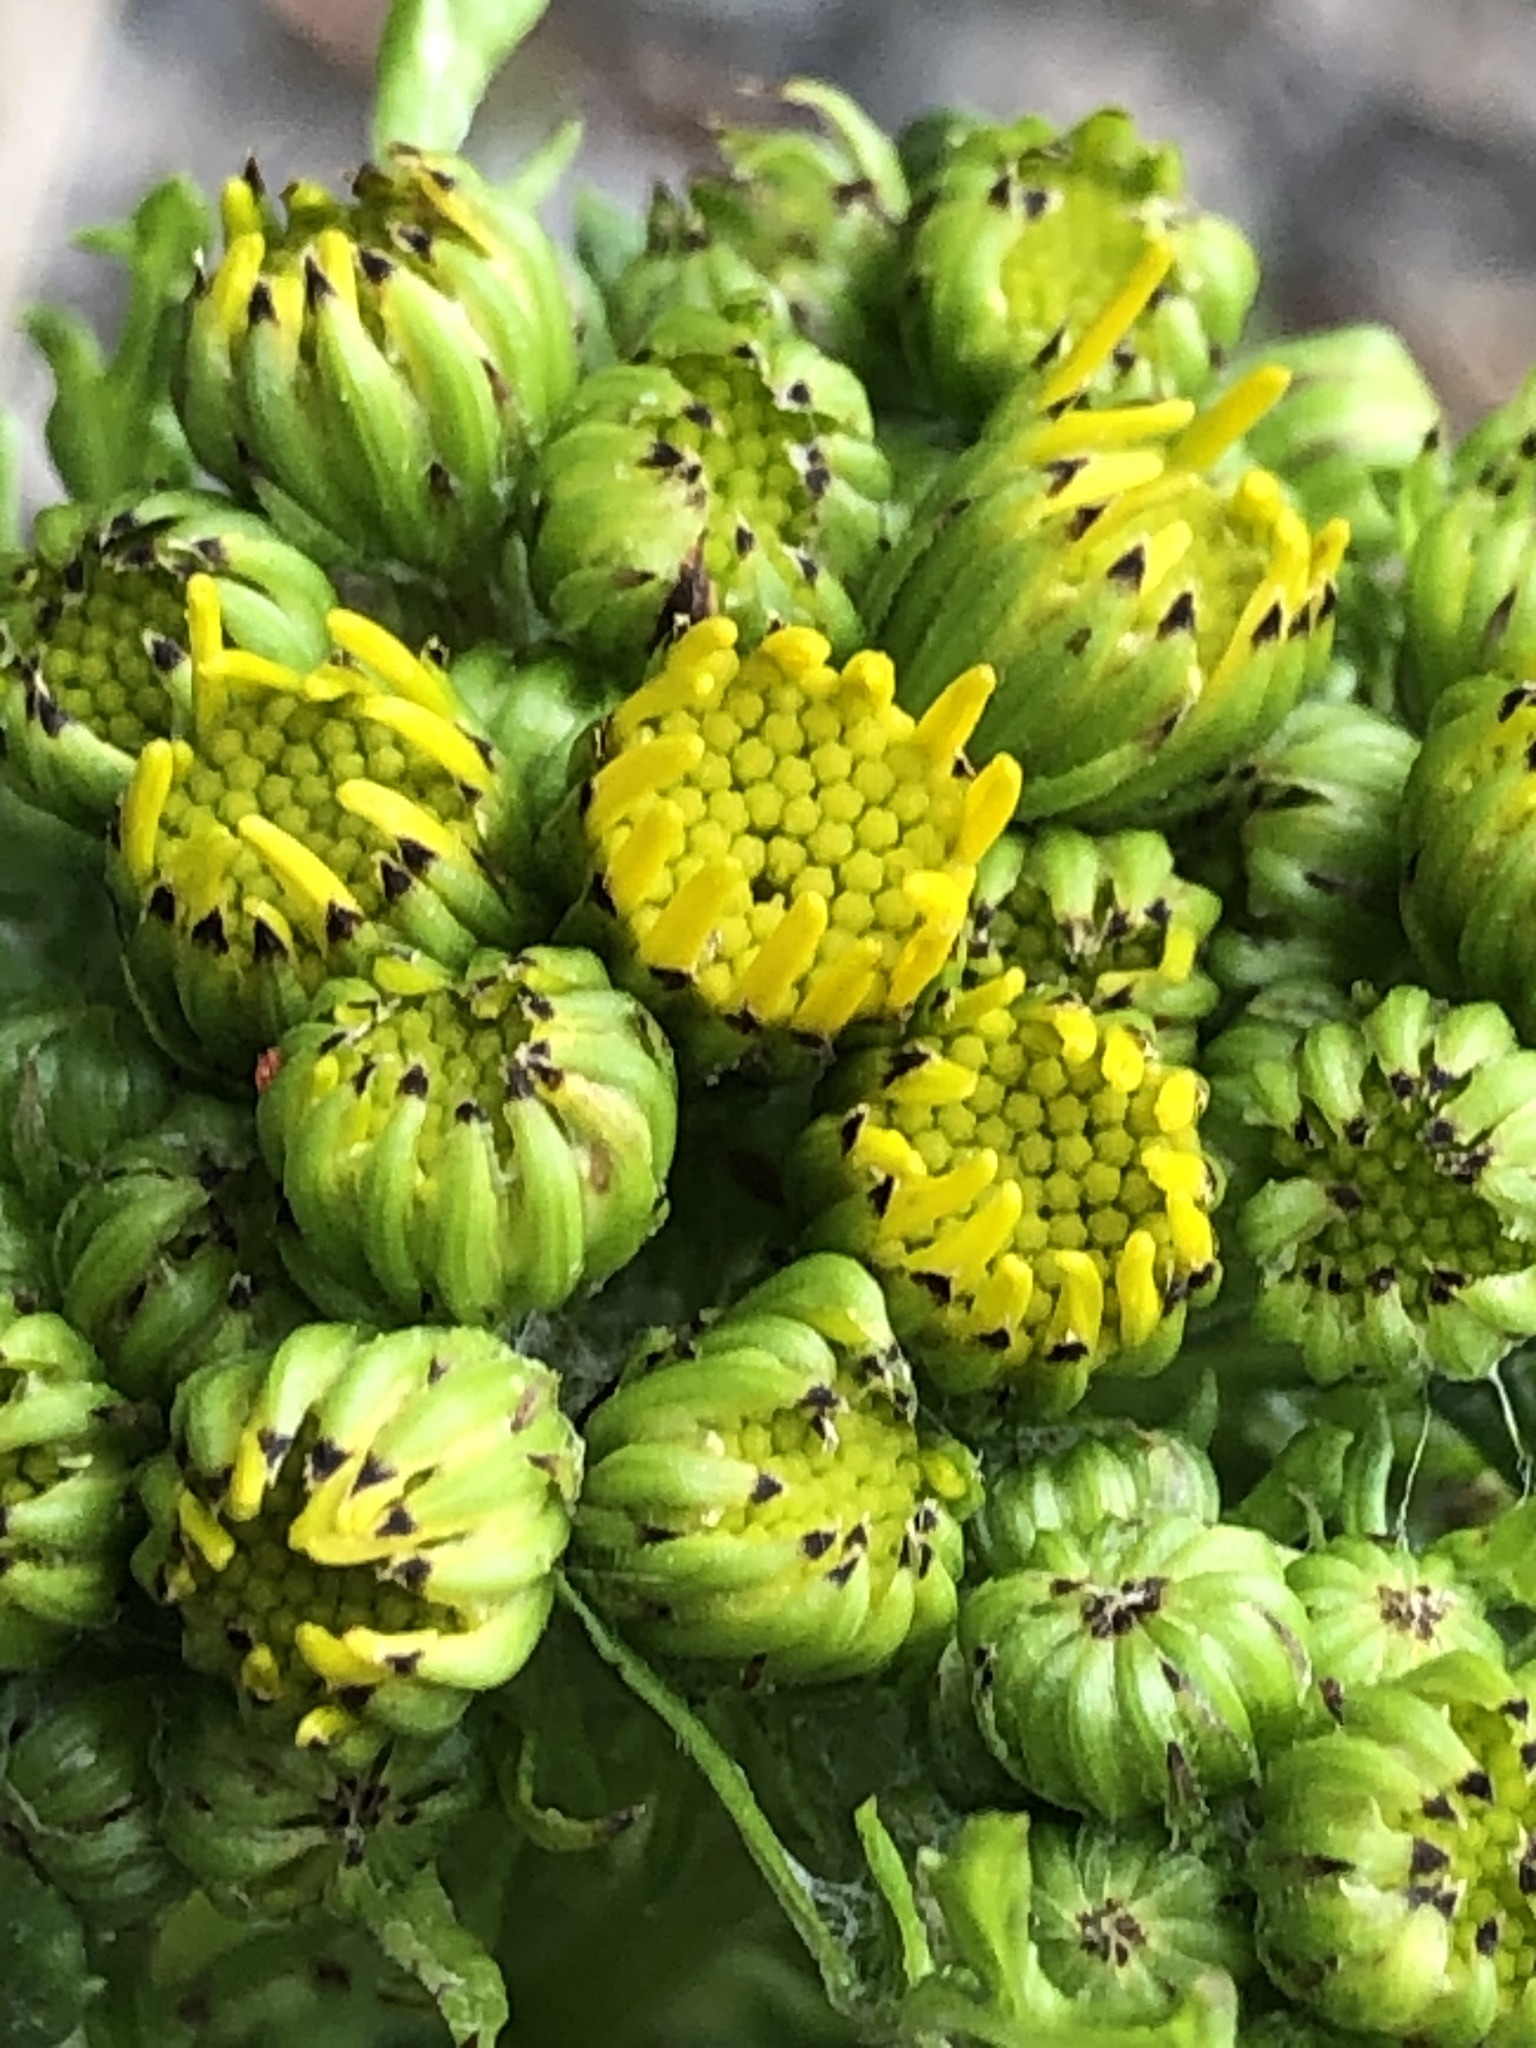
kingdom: Plantae
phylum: Tracheophyta
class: Magnoliopsida
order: Asterales
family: Asteraceae
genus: Jacobaea
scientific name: Jacobaea vulgaris
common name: Stinking willie
